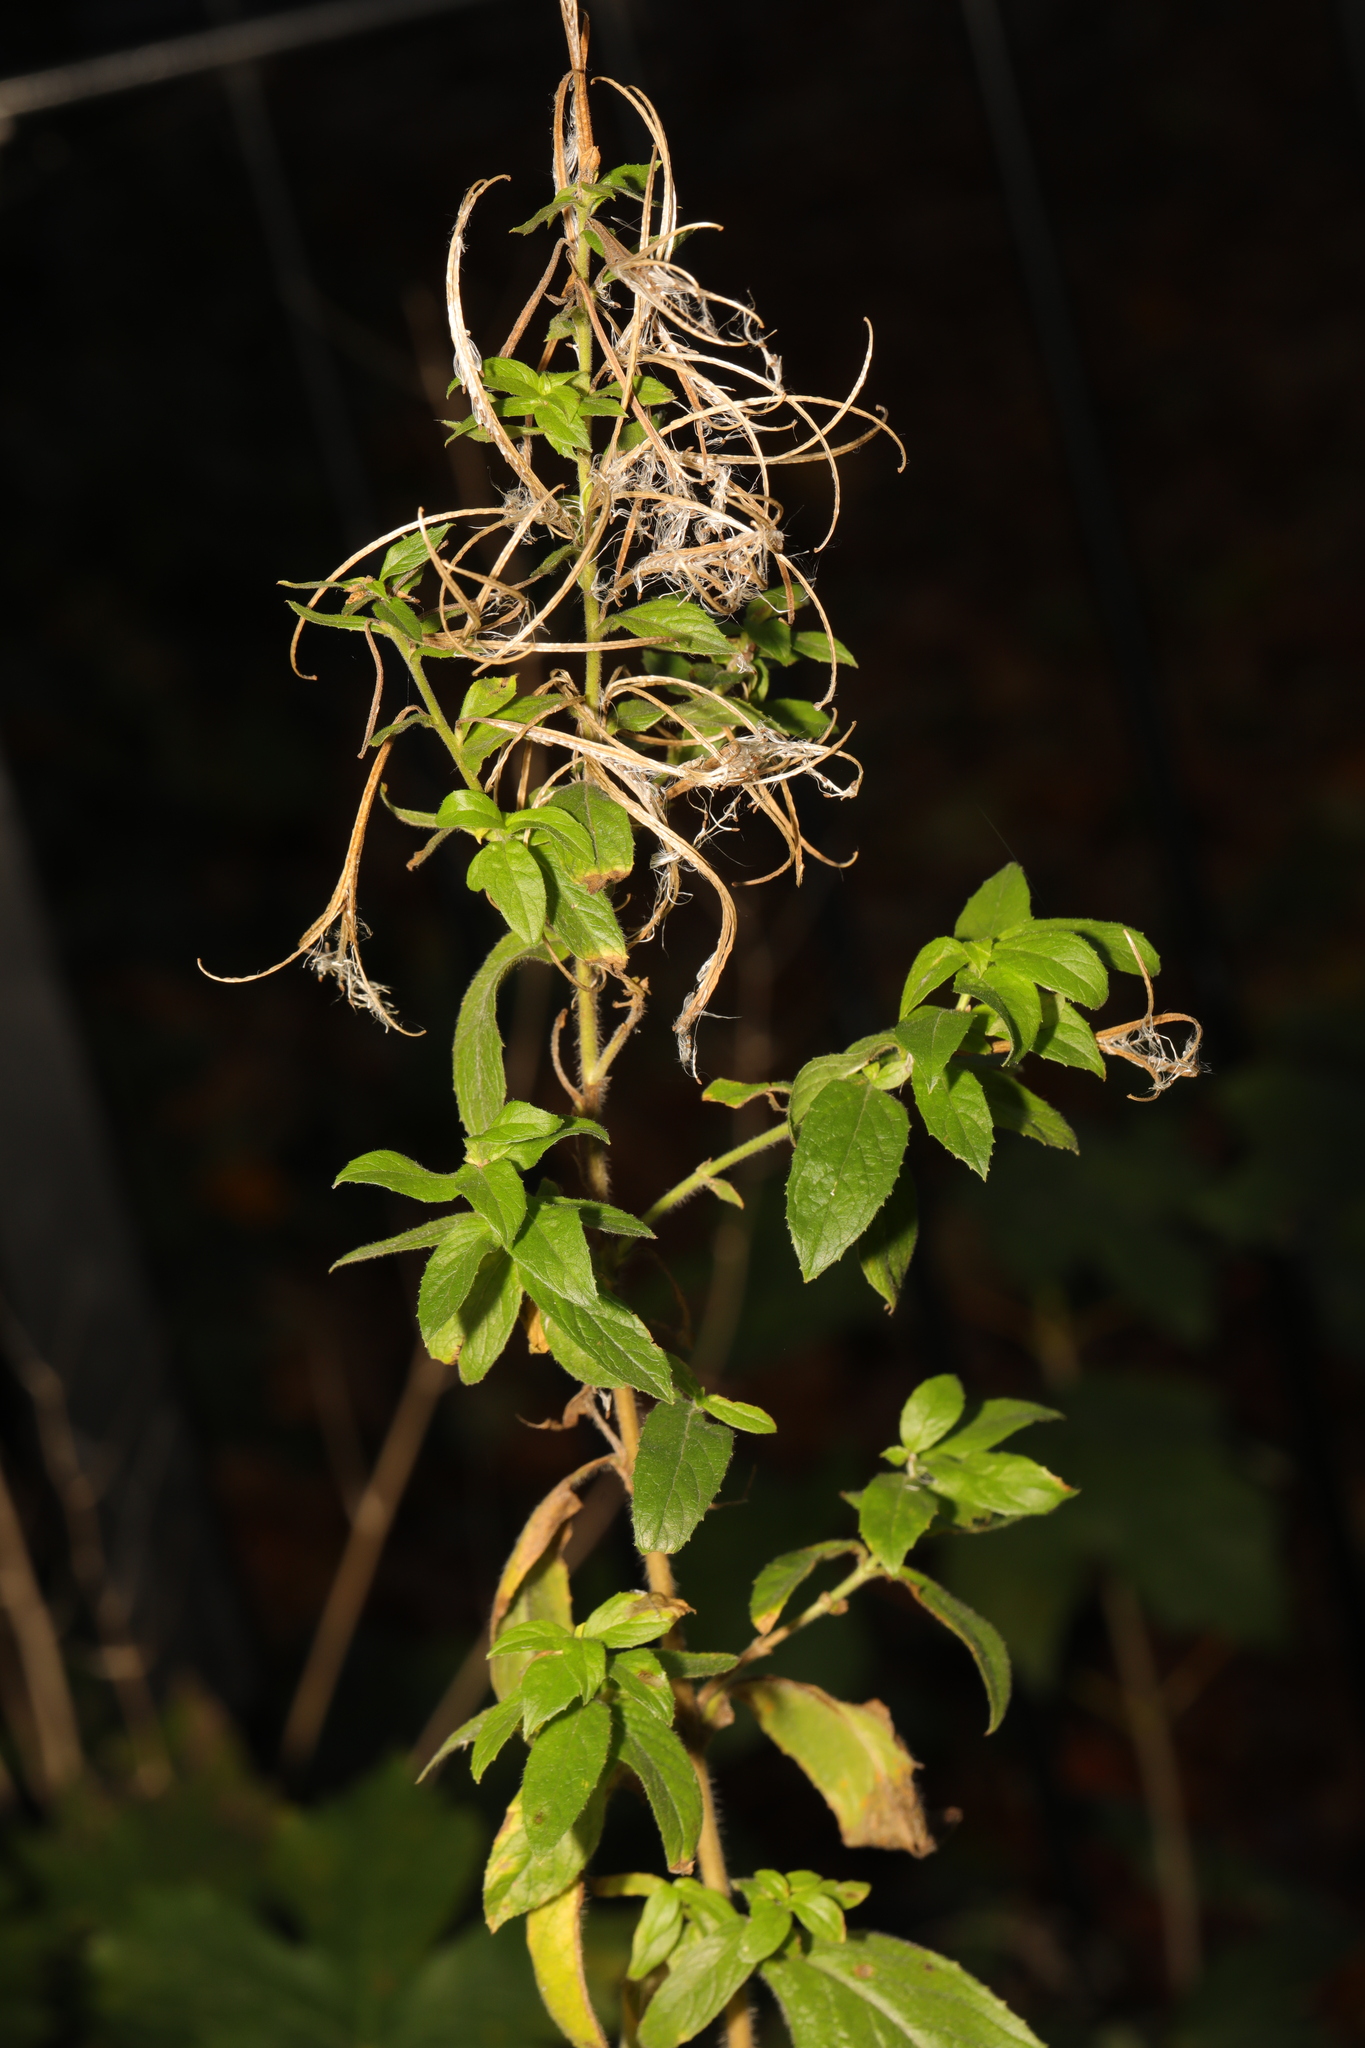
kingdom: Plantae
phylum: Tracheophyta
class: Magnoliopsida
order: Myrtales
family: Onagraceae
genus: Epilobium
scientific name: Epilobium hirsutum
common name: Great willowherb
